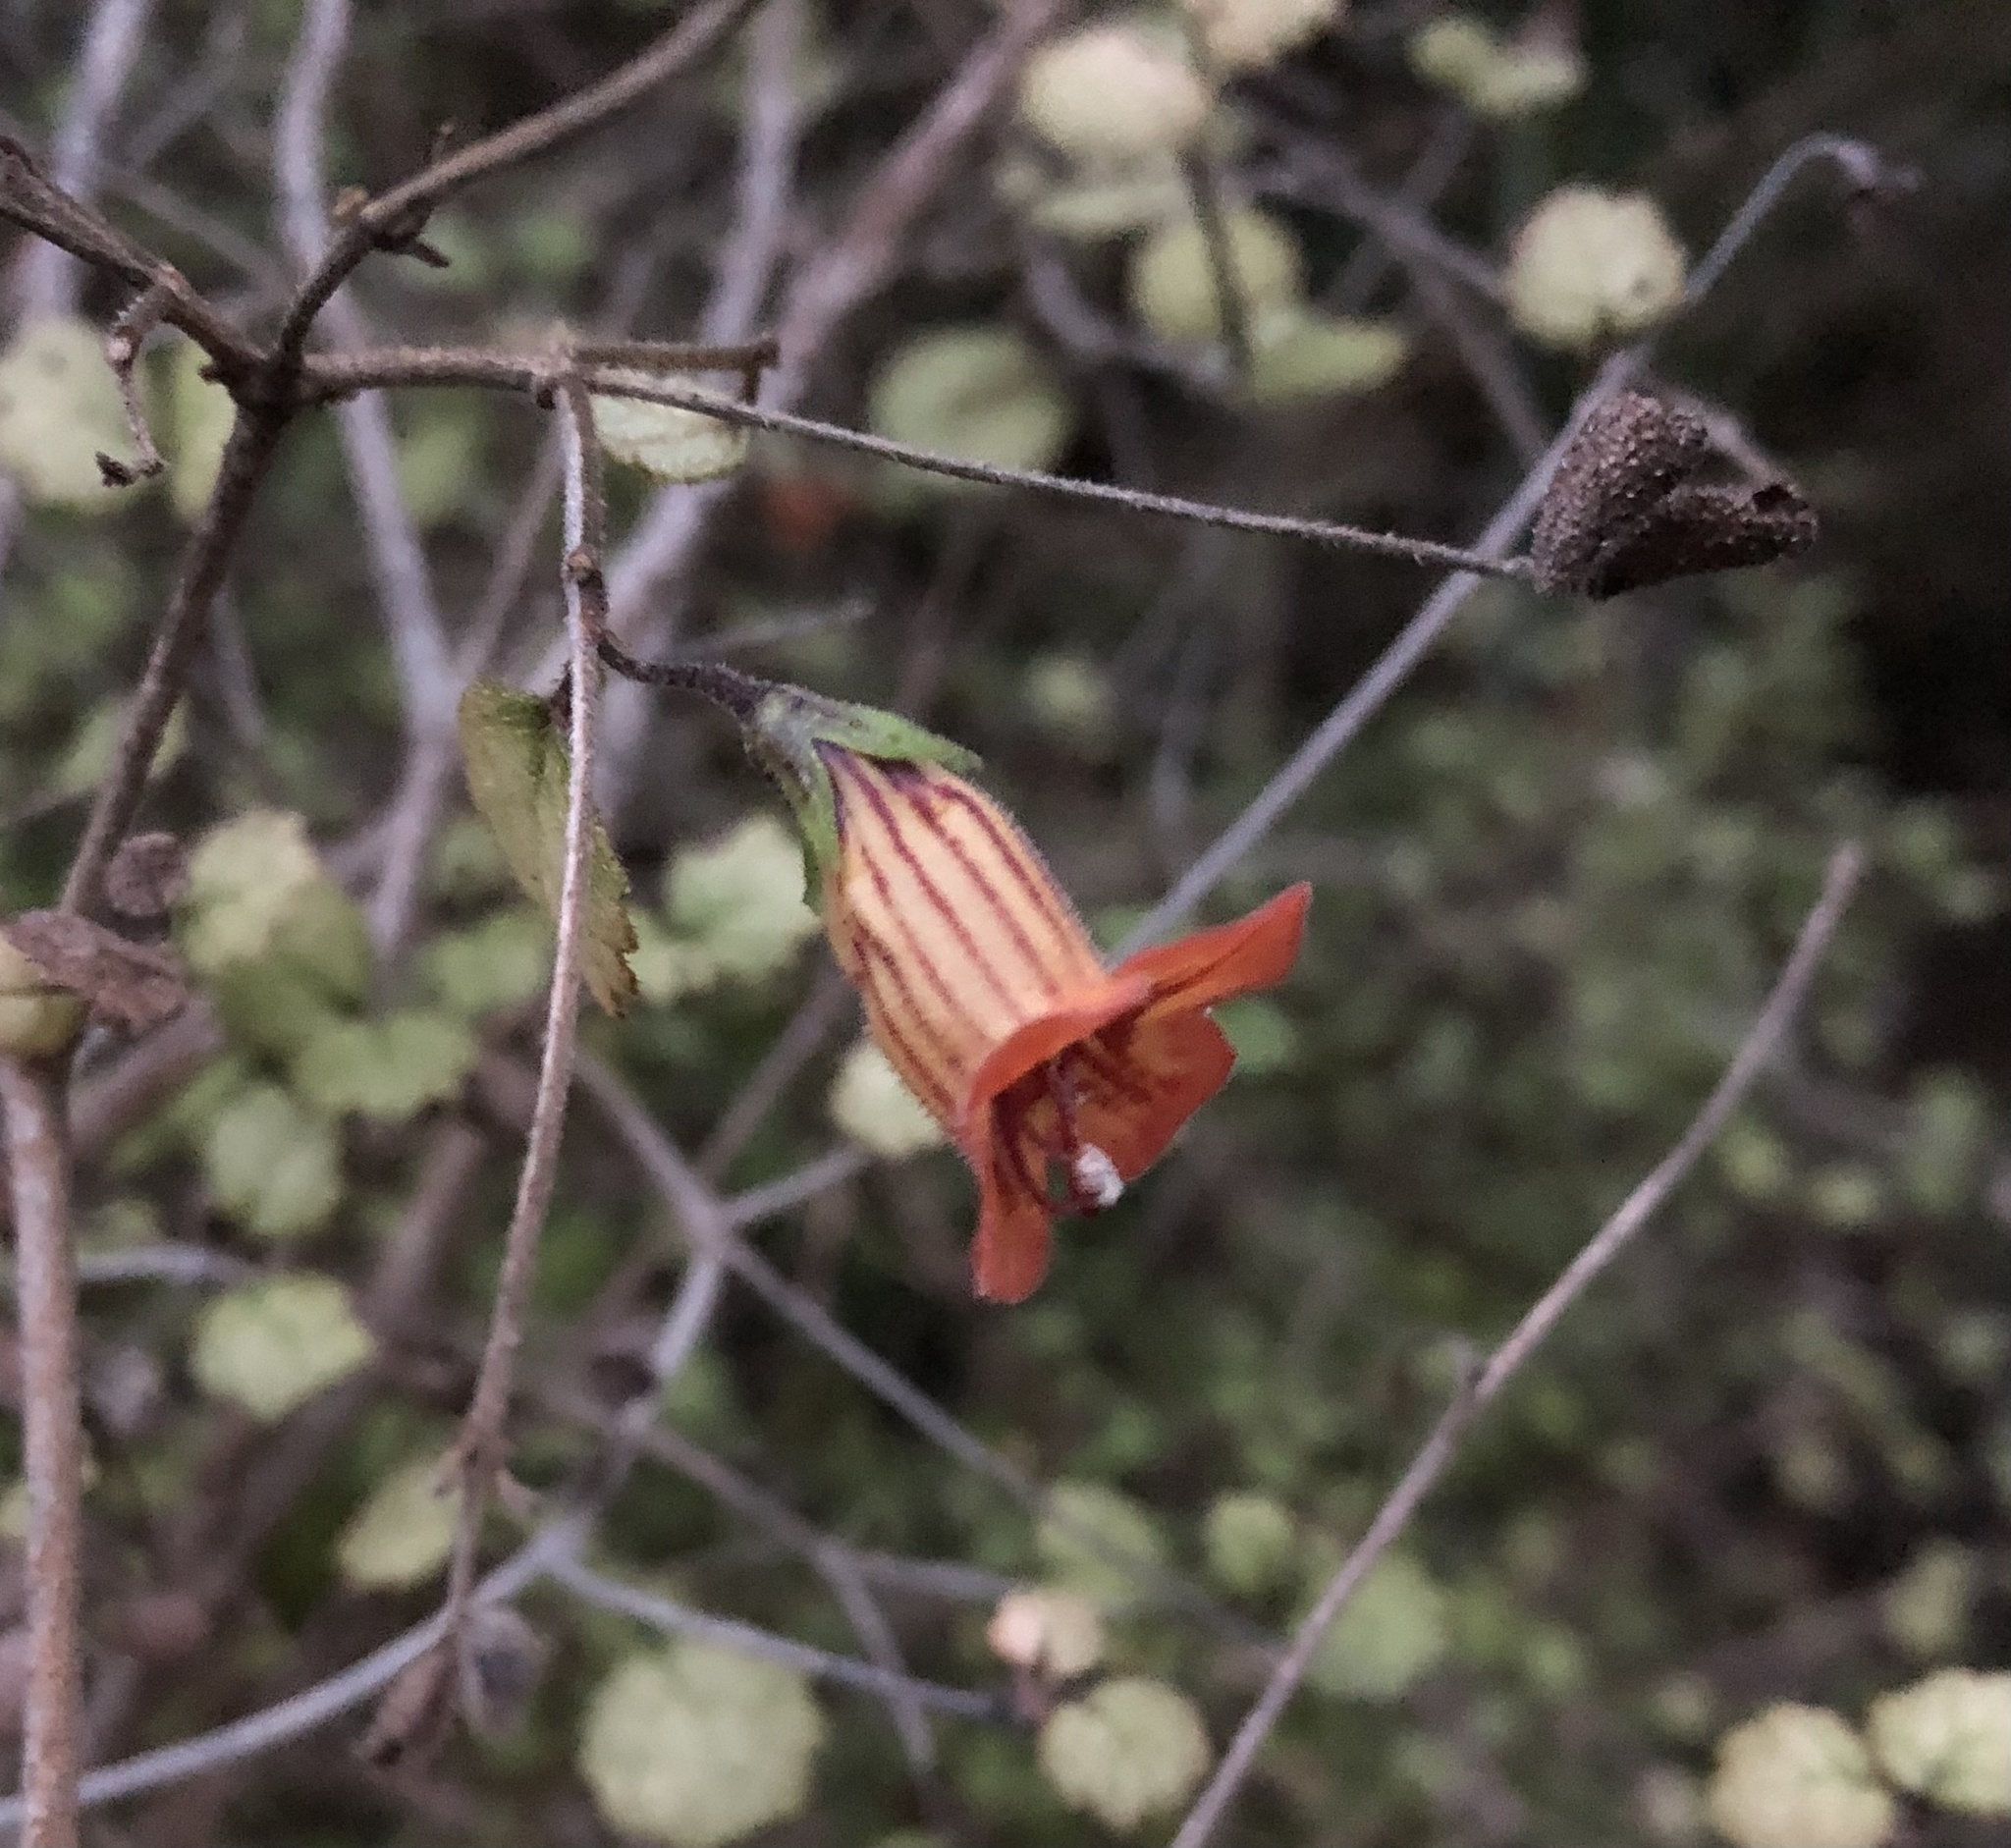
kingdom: Plantae
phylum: Tracheophyta
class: Magnoliopsida
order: Lamiales
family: Gesneriaceae
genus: Rhabdothamnus
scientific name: Rhabdothamnus solandri
